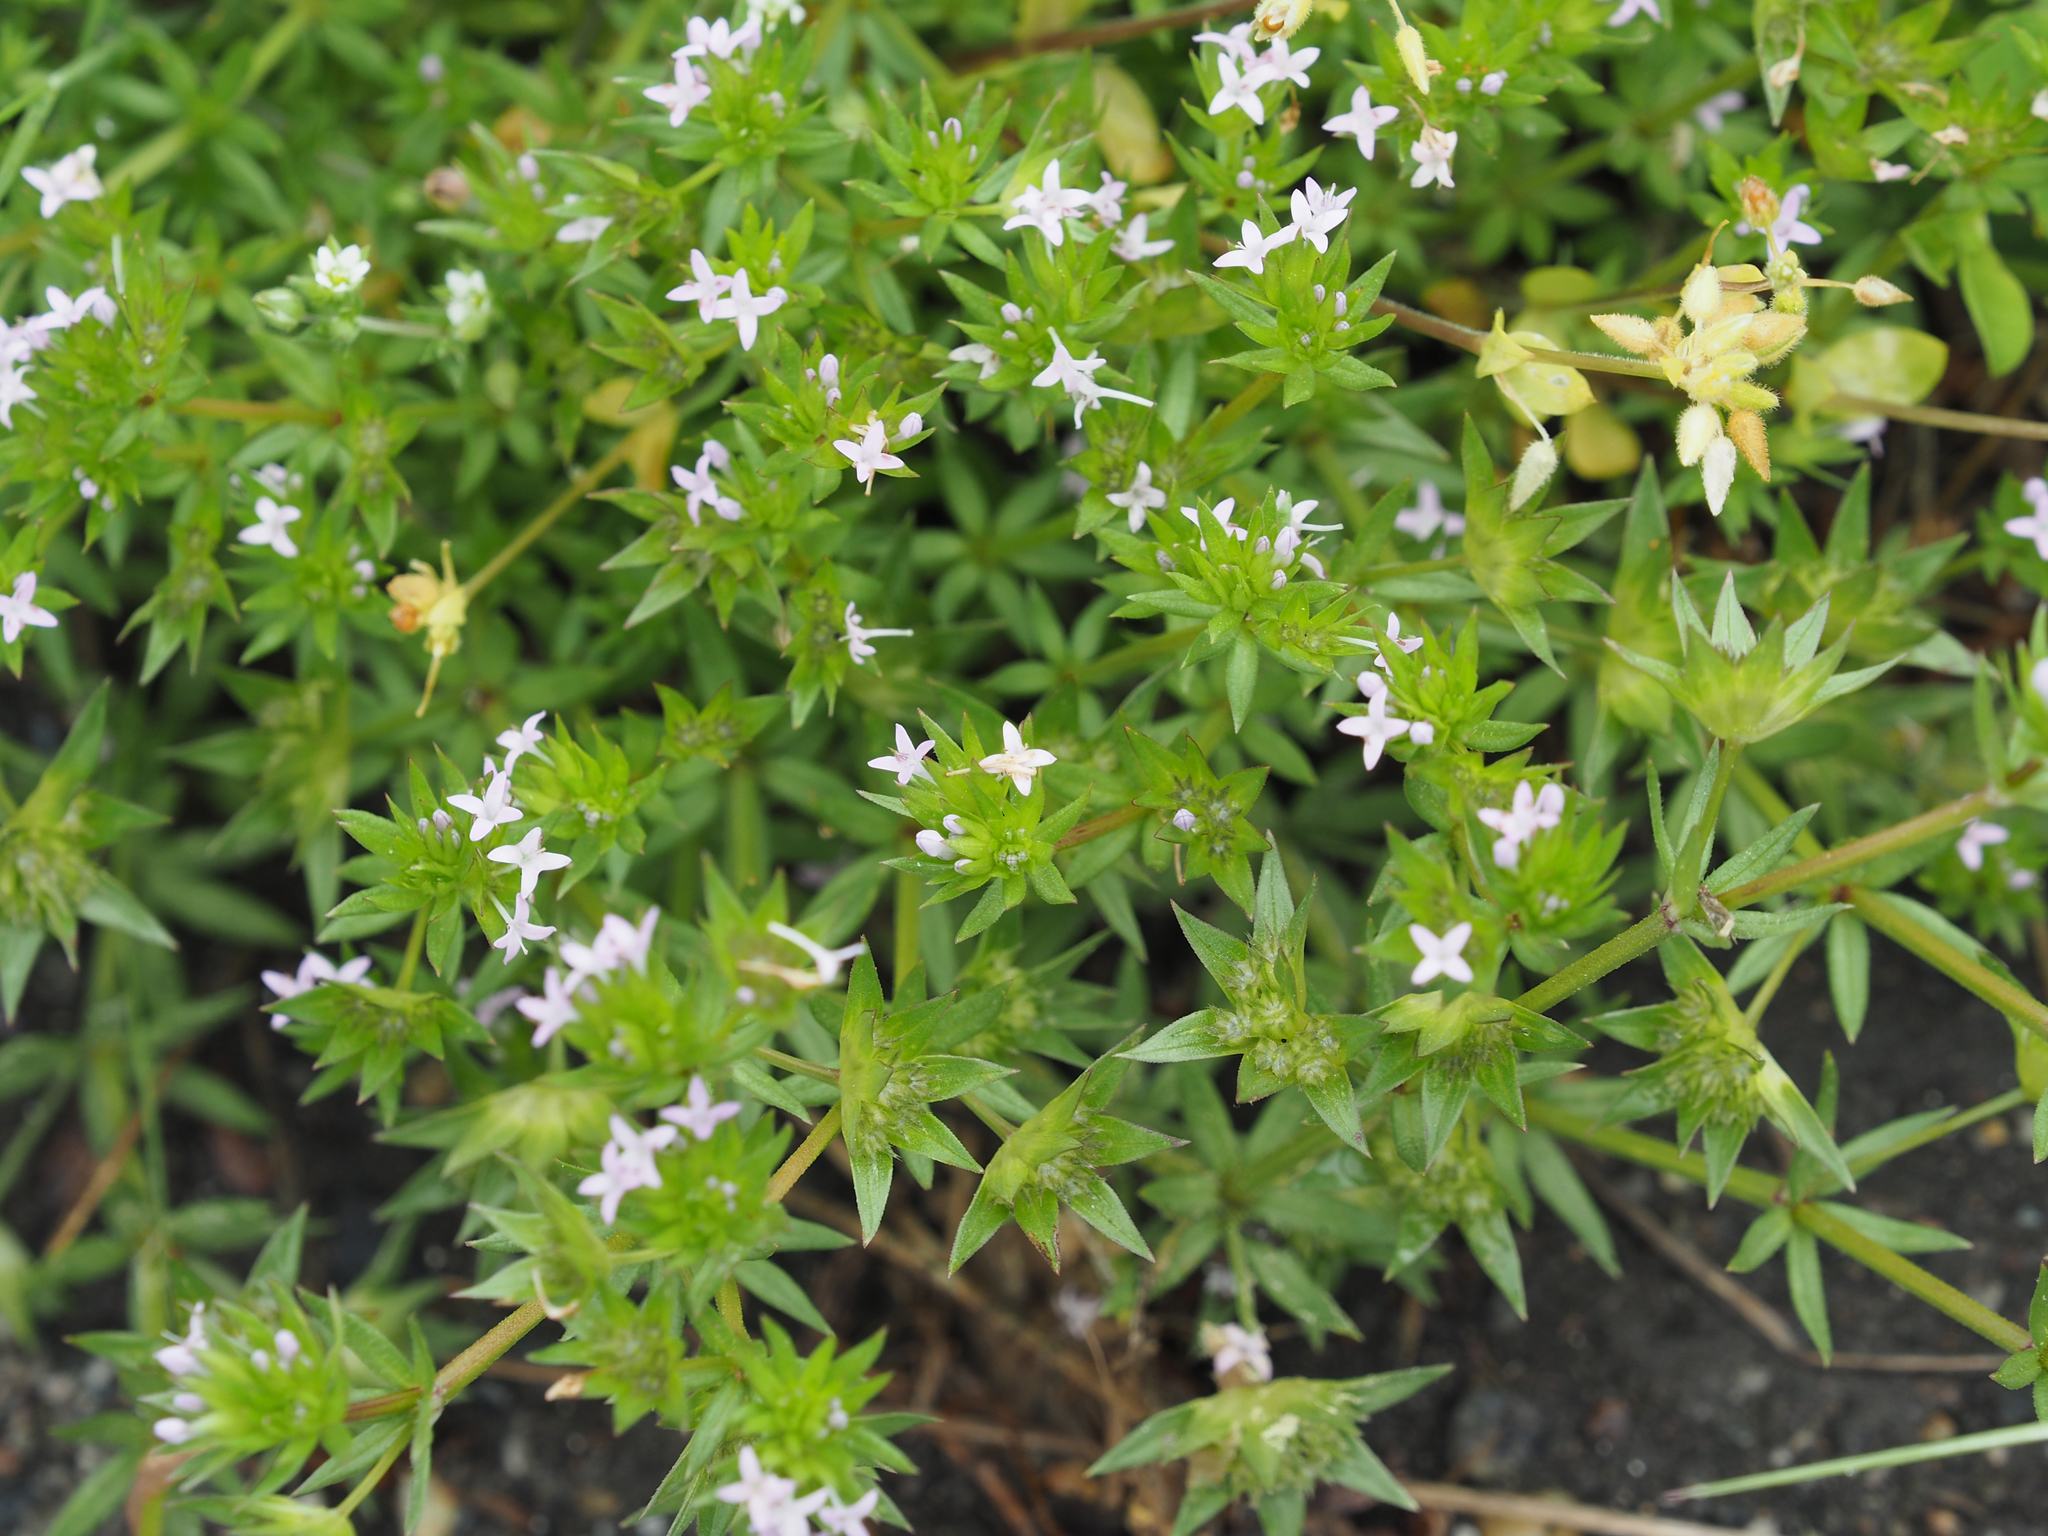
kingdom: Plantae
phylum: Tracheophyta
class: Magnoliopsida
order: Gentianales
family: Rubiaceae
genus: Sherardia
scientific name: Sherardia arvensis
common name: Field madder
